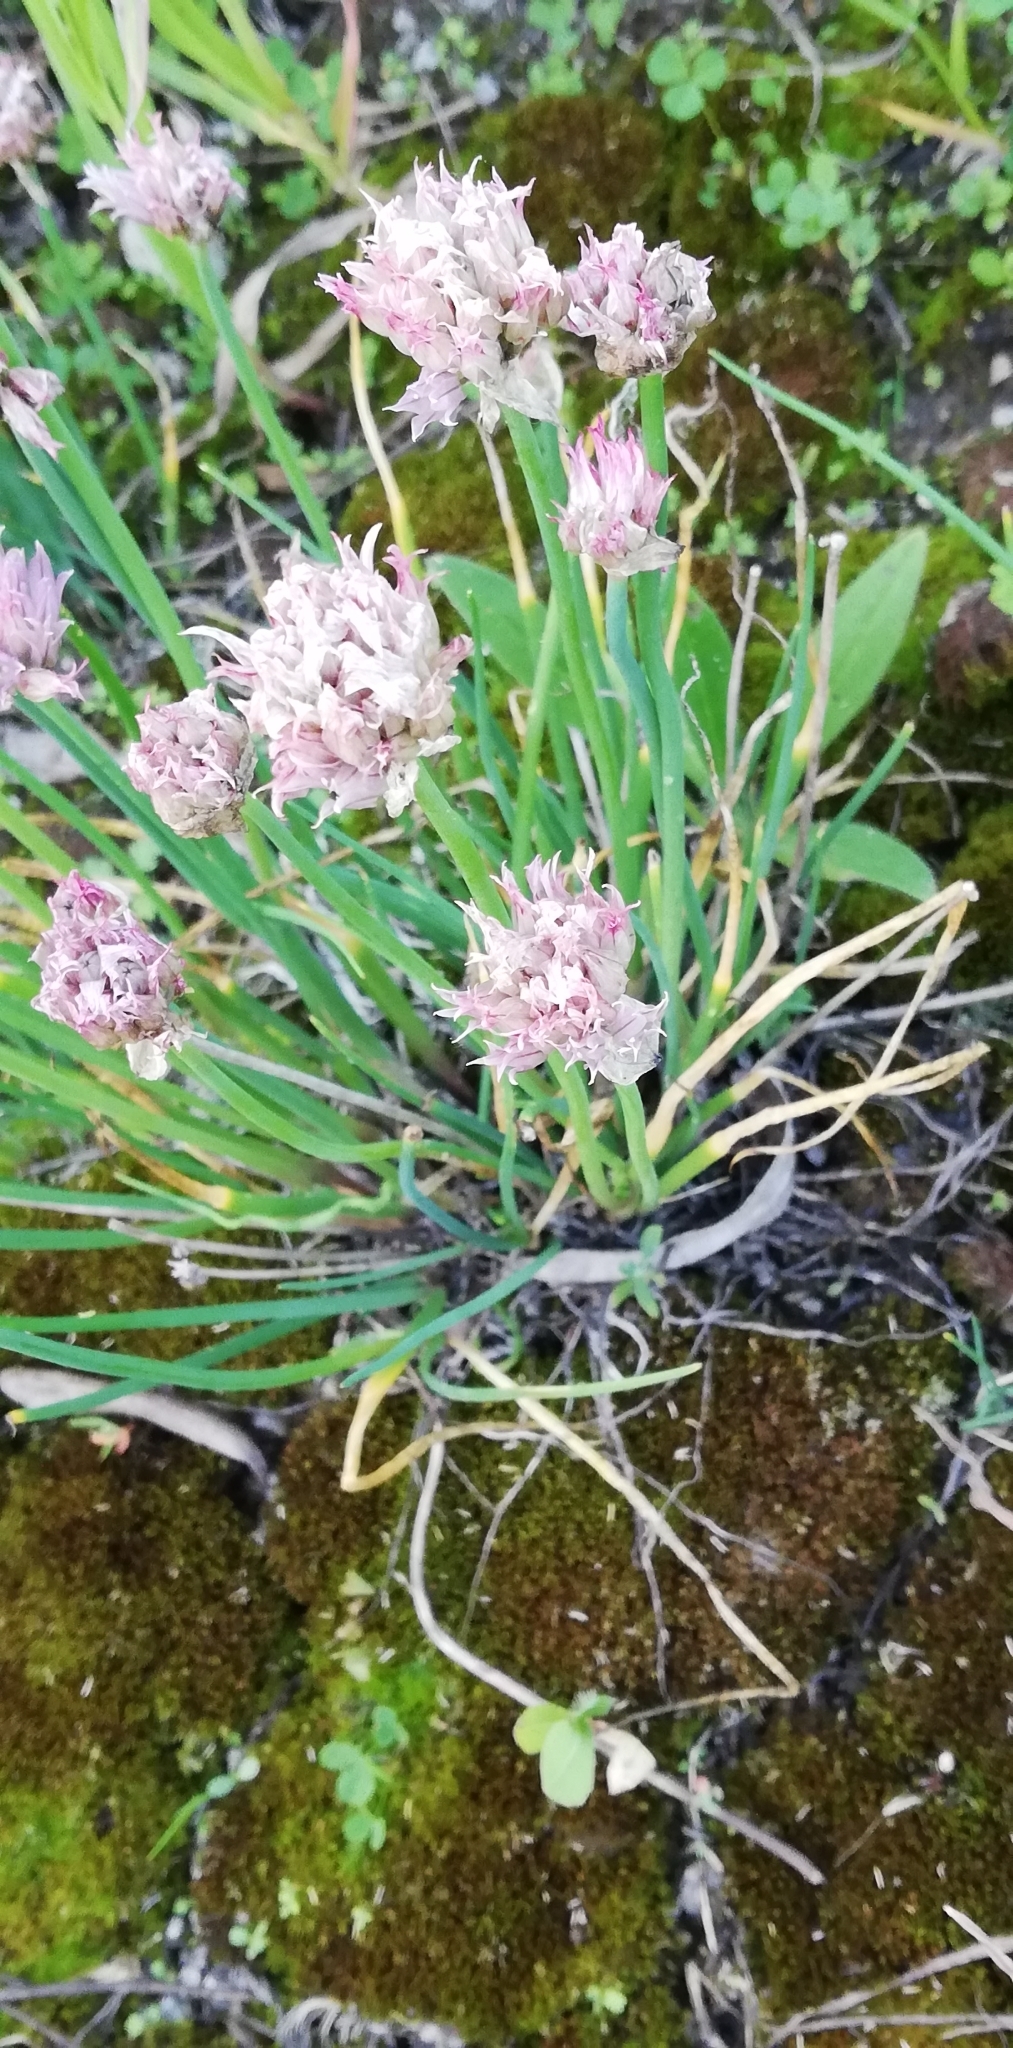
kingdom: Plantae
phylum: Tracheophyta
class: Liliopsida
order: Asparagales
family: Amaryllidaceae
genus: Allium
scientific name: Allium schoenoprasum
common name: Chives
